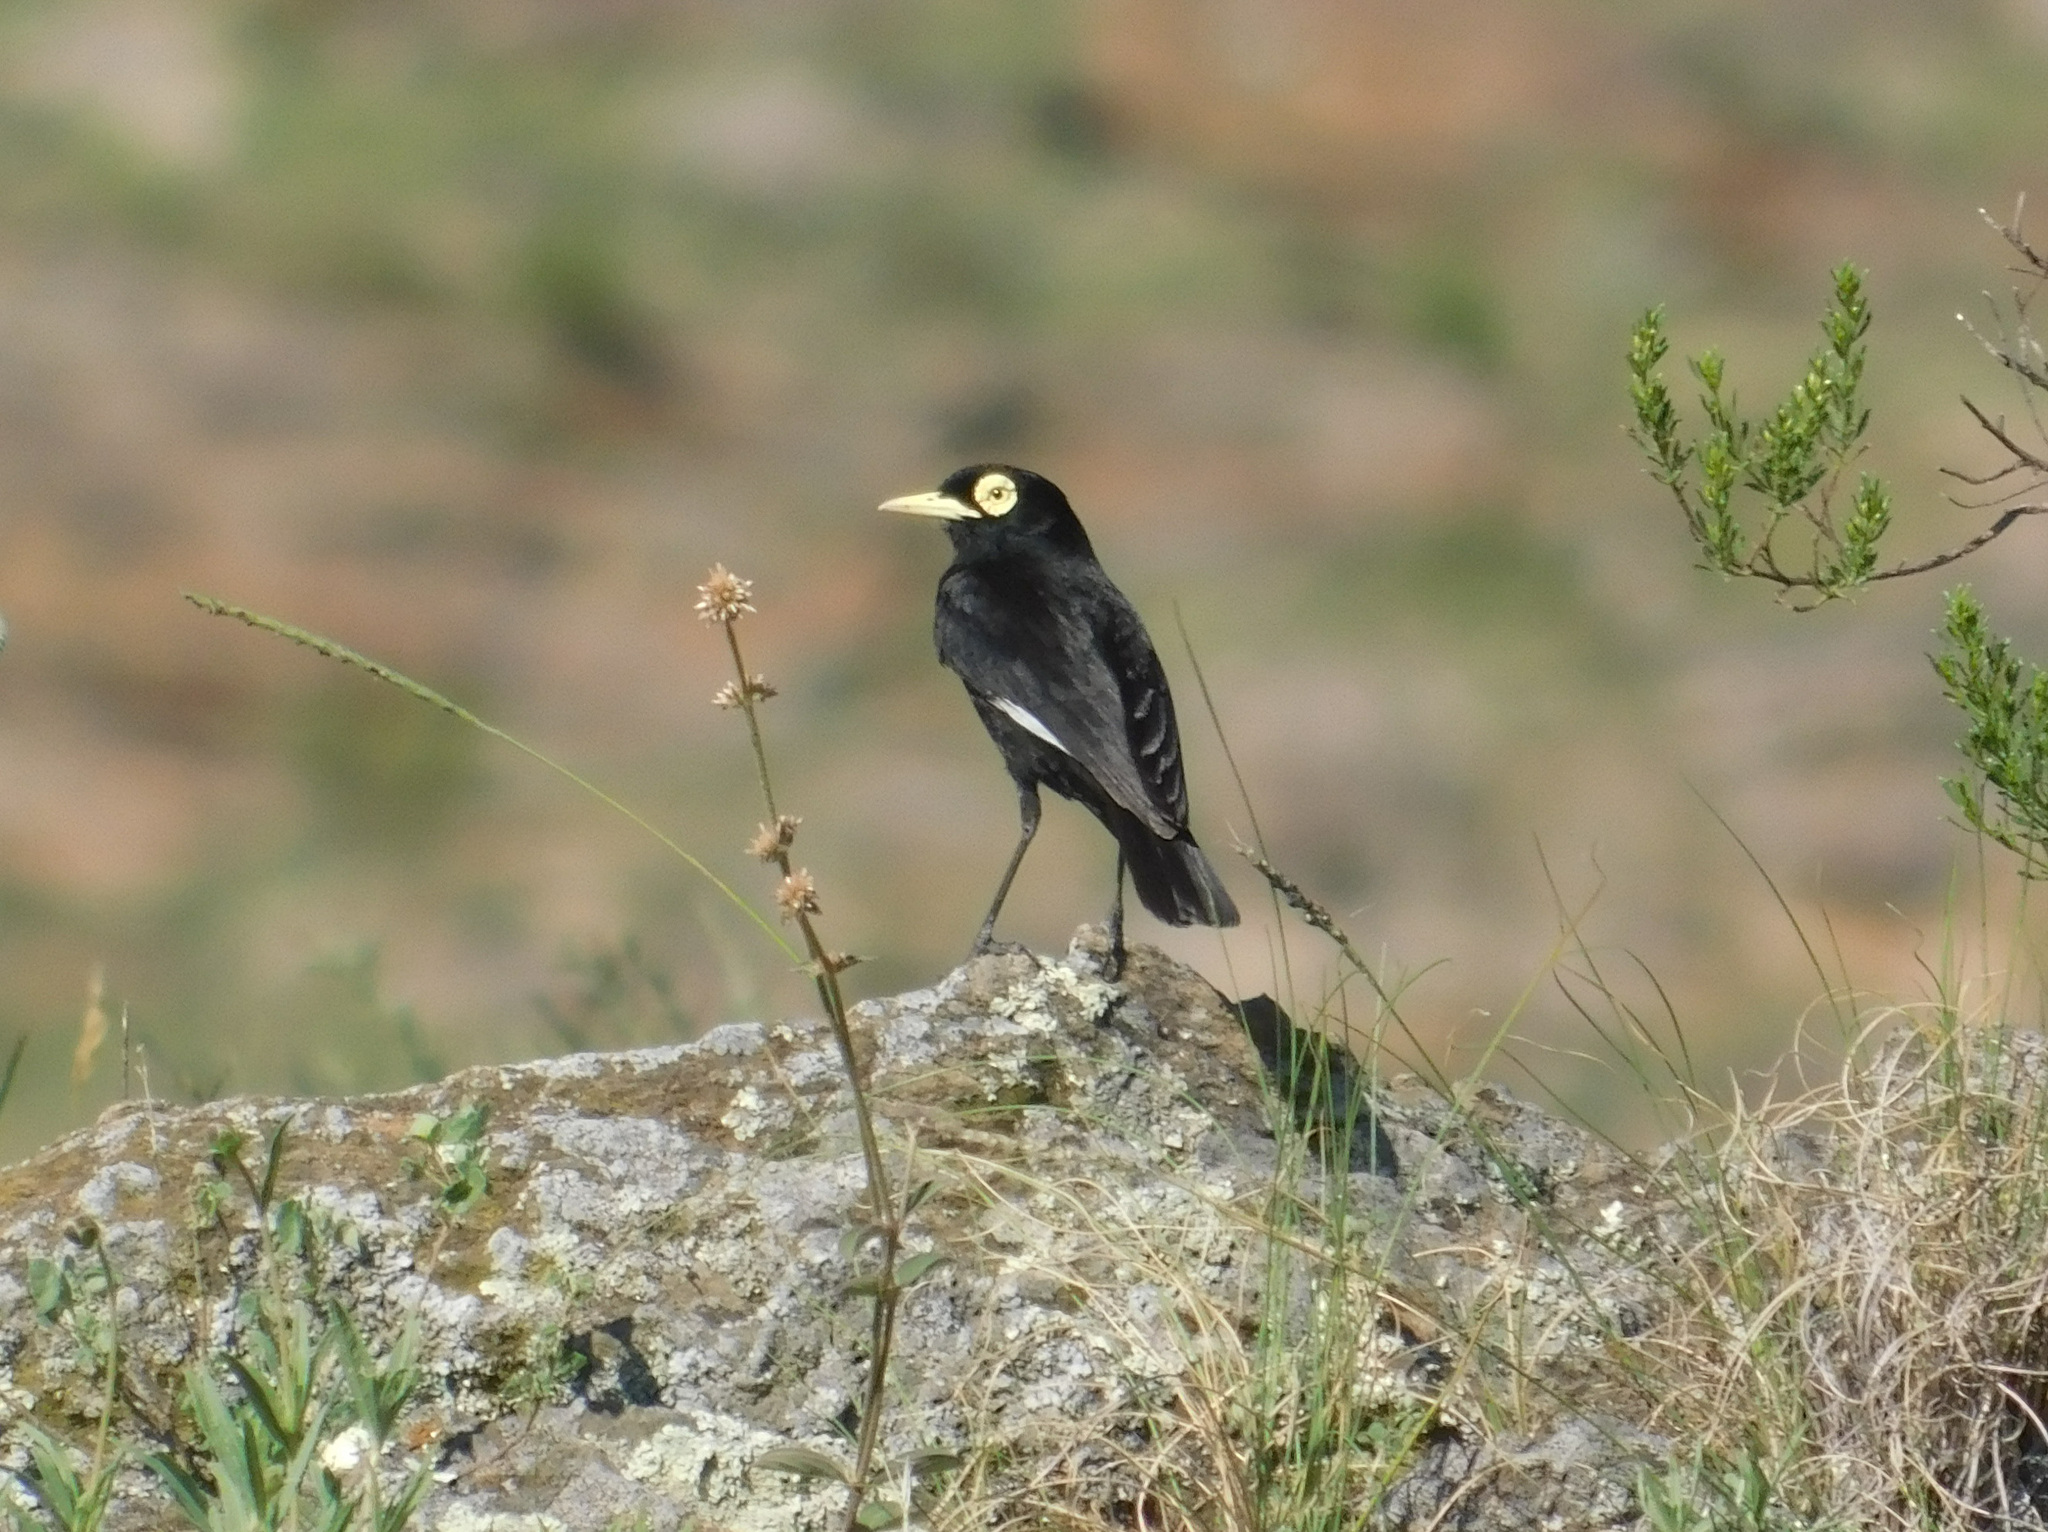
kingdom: Animalia
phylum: Chordata
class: Aves
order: Passeriformes
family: Tyrannidae
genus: Hymenops
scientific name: Hymenops perspicillatus
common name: Spectacled tyrant
